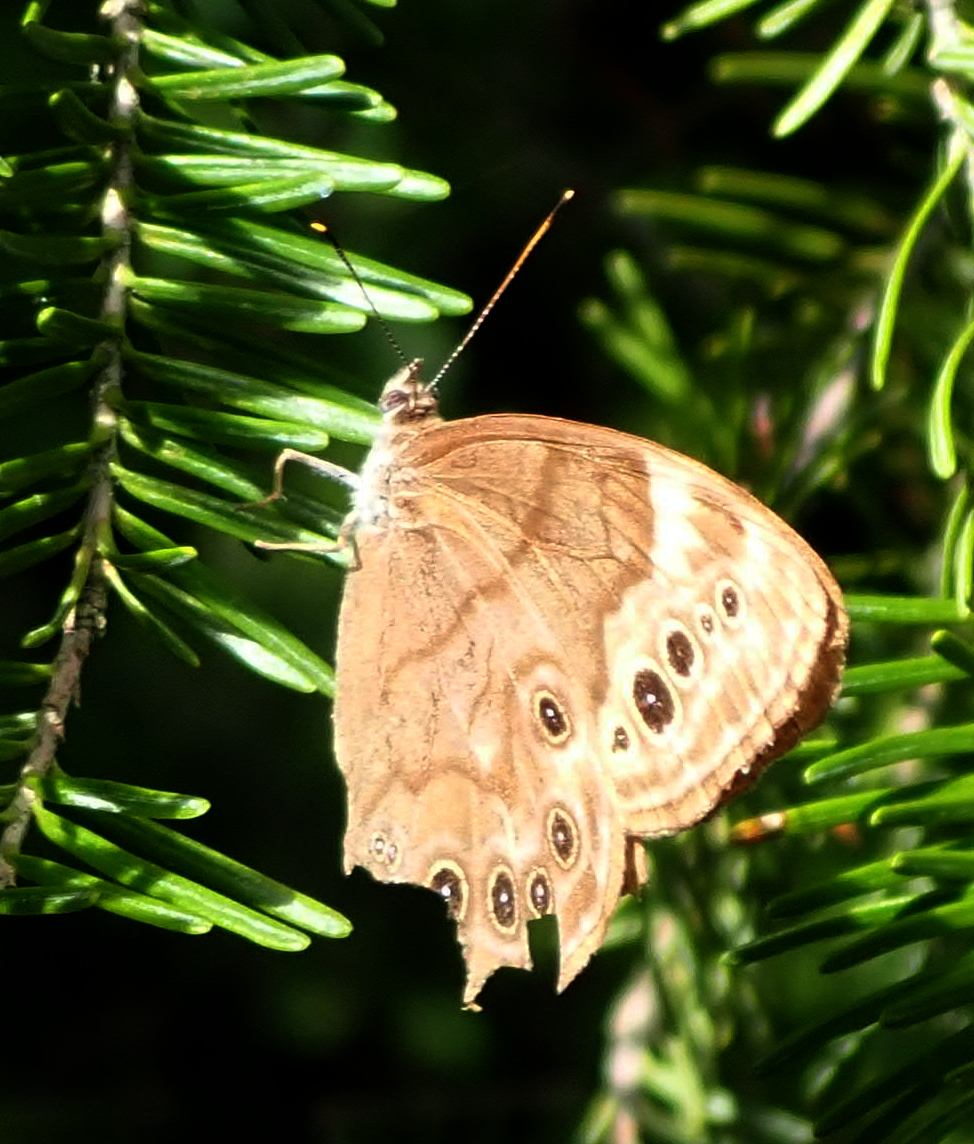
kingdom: Animalia
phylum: Arthropoda
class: Insecta
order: Lepidoptera
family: Nymphalidae
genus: Lethe
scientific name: Lethe anthedon
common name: Northern pearly-eye
